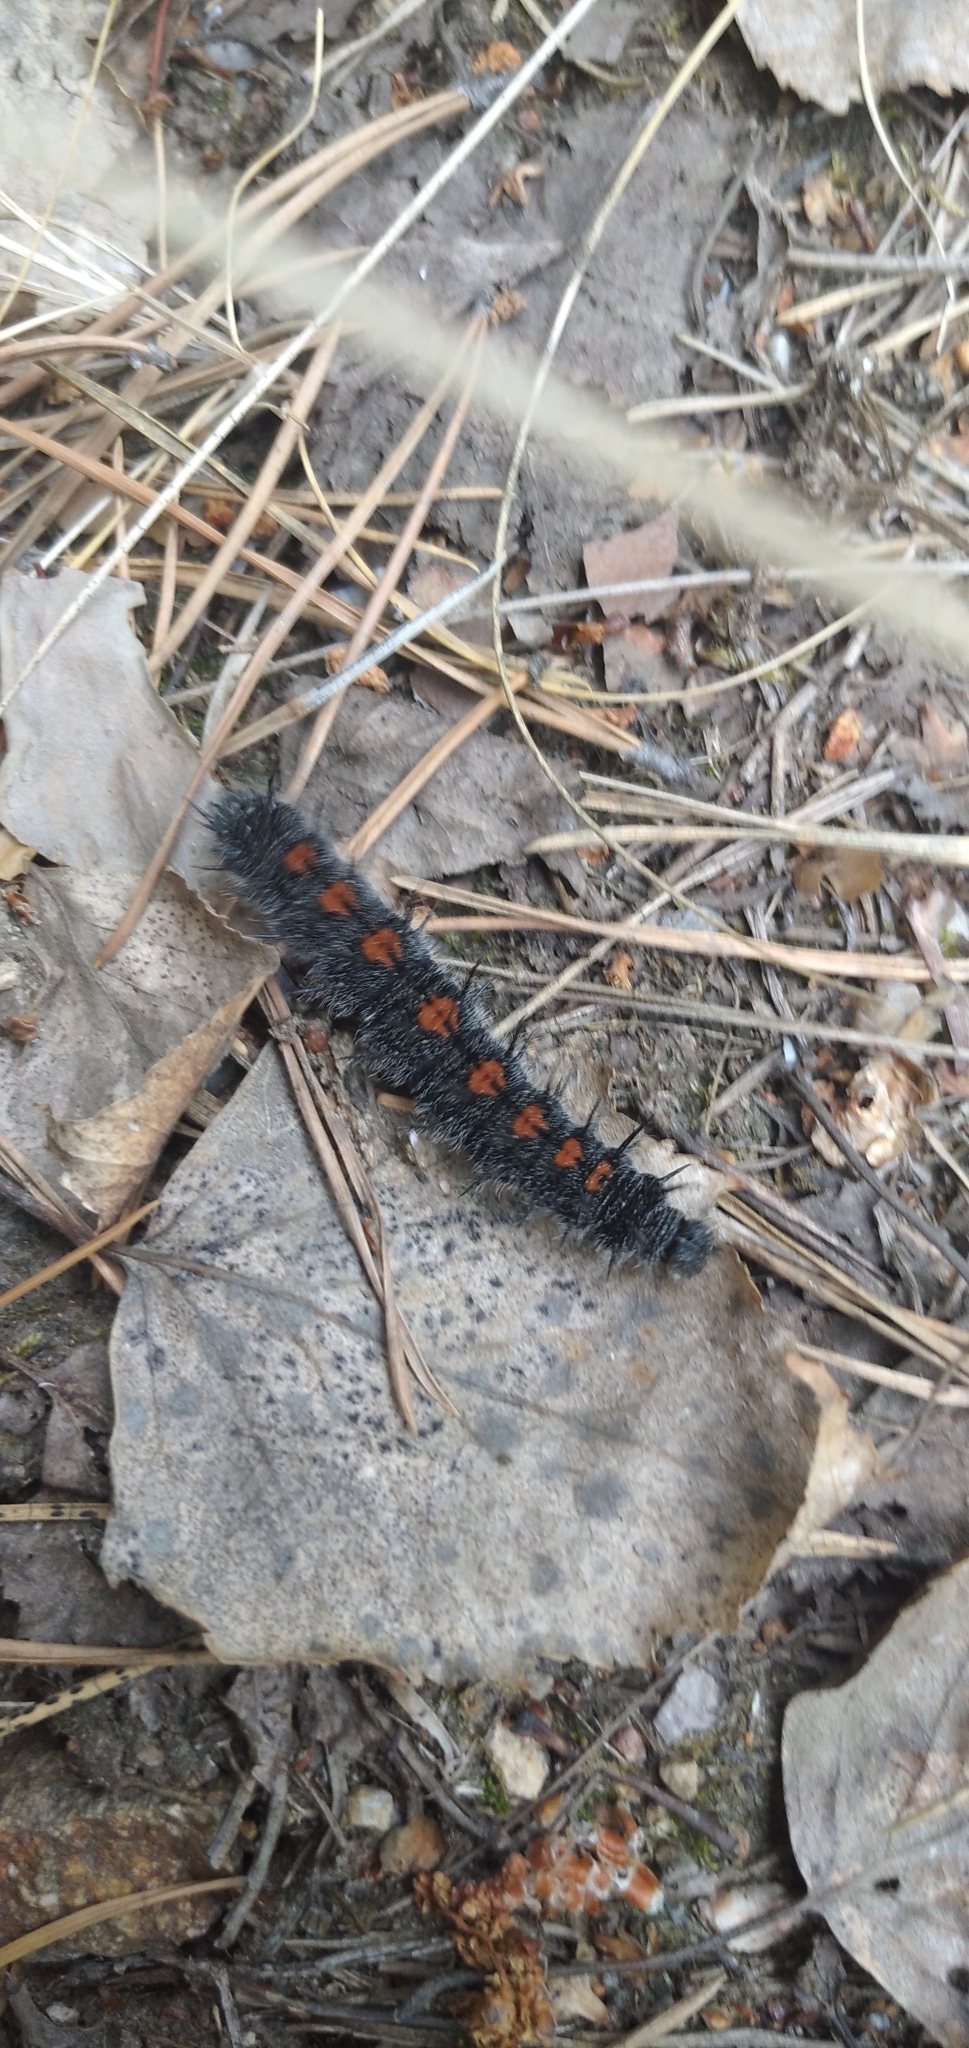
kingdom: Animalia
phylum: Arthropoda
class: Insecta
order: Lepidoptera
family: Nymphalidae
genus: Nymphalis
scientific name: Nymphalis antiopa
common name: Camberwell beauty
